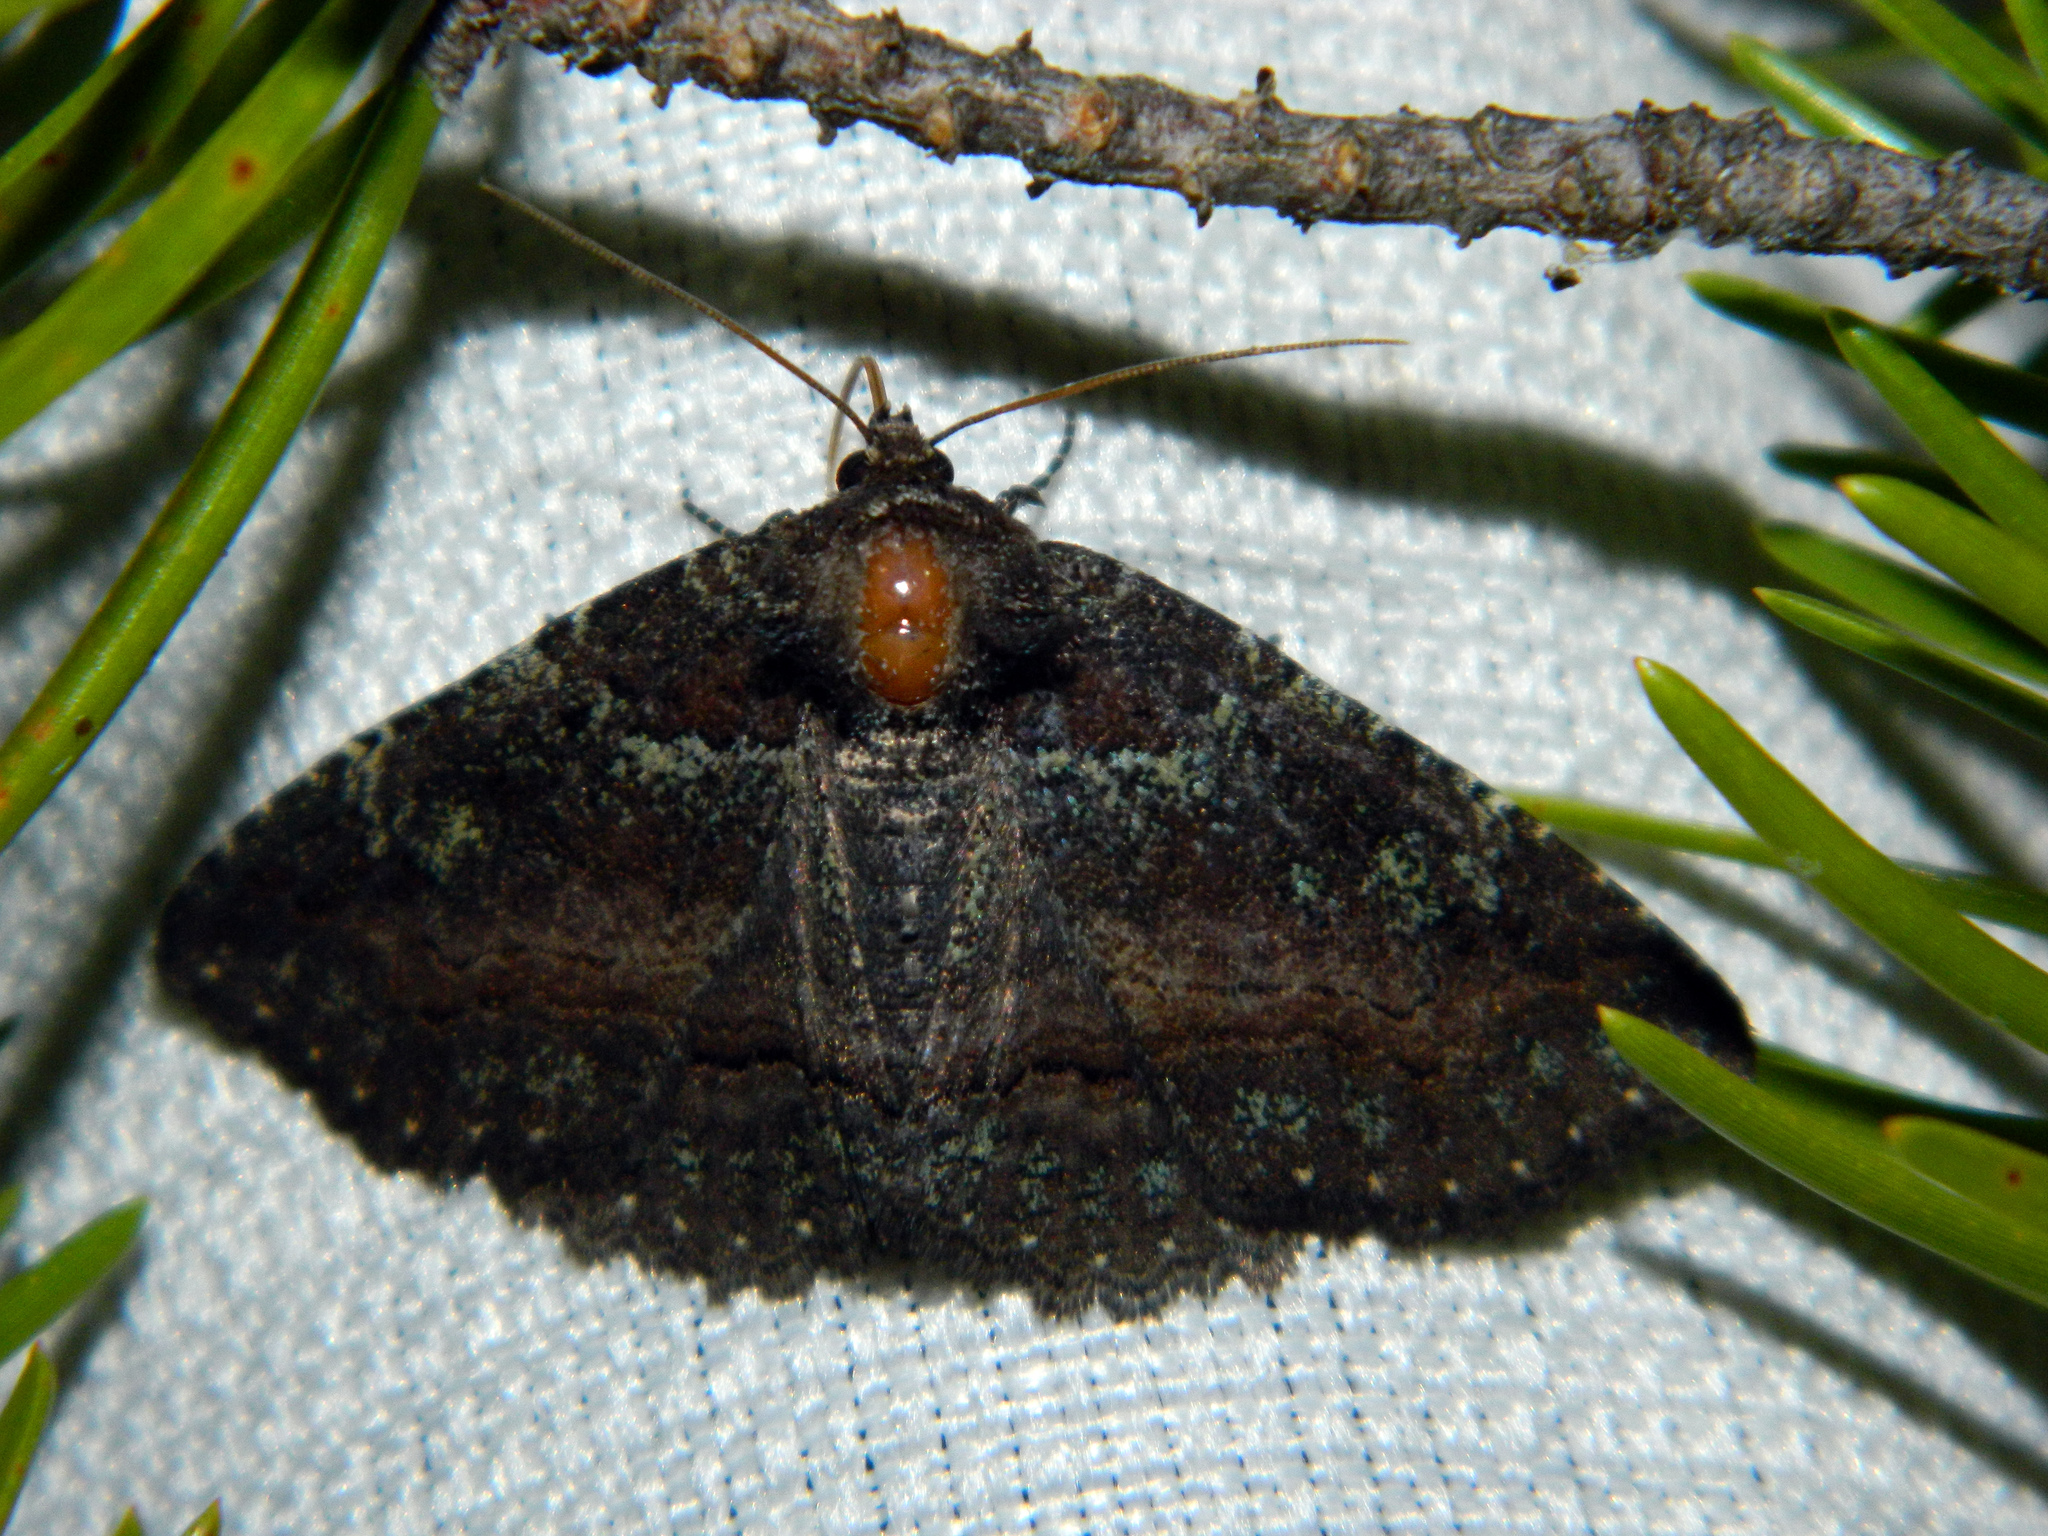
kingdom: Animalia
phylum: Arthropoda
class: Insecta
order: Lepidoptera
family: Erebidae
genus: Zale
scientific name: Zale aeruginosa
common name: Green-dusted zale moth
